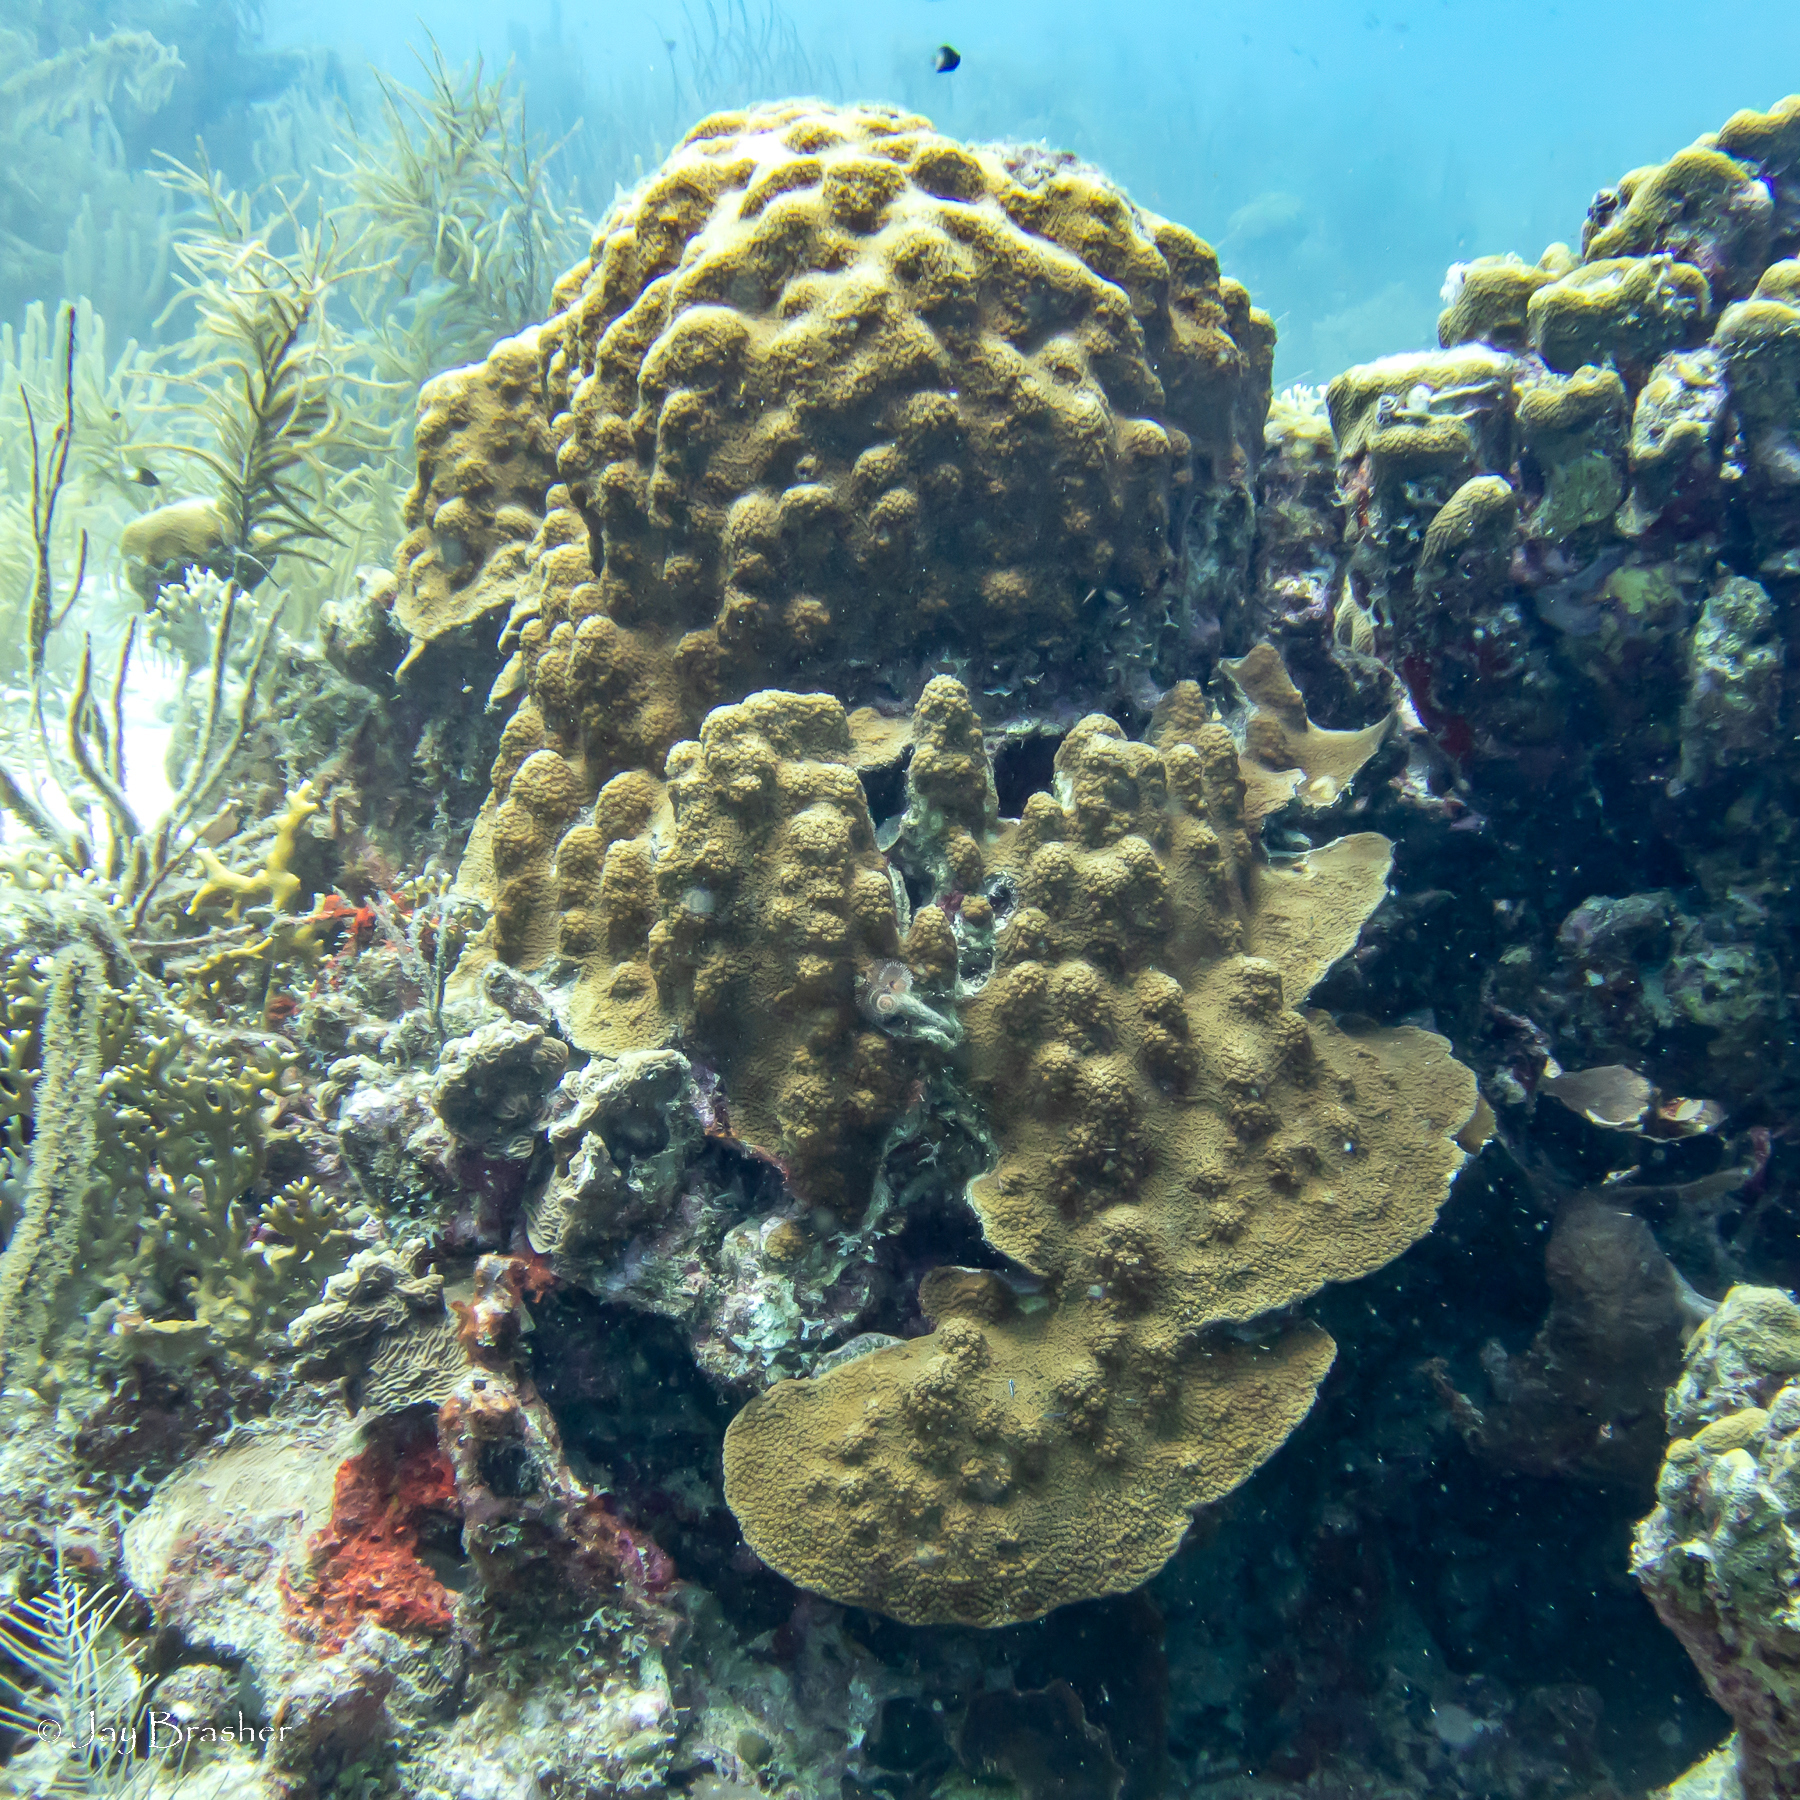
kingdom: Animalia
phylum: Cnidaria
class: Anthozoa
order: Scleractinia
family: Merulinidae
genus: Orbicella
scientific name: Orbicella faveolata
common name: Mountainous star coral
